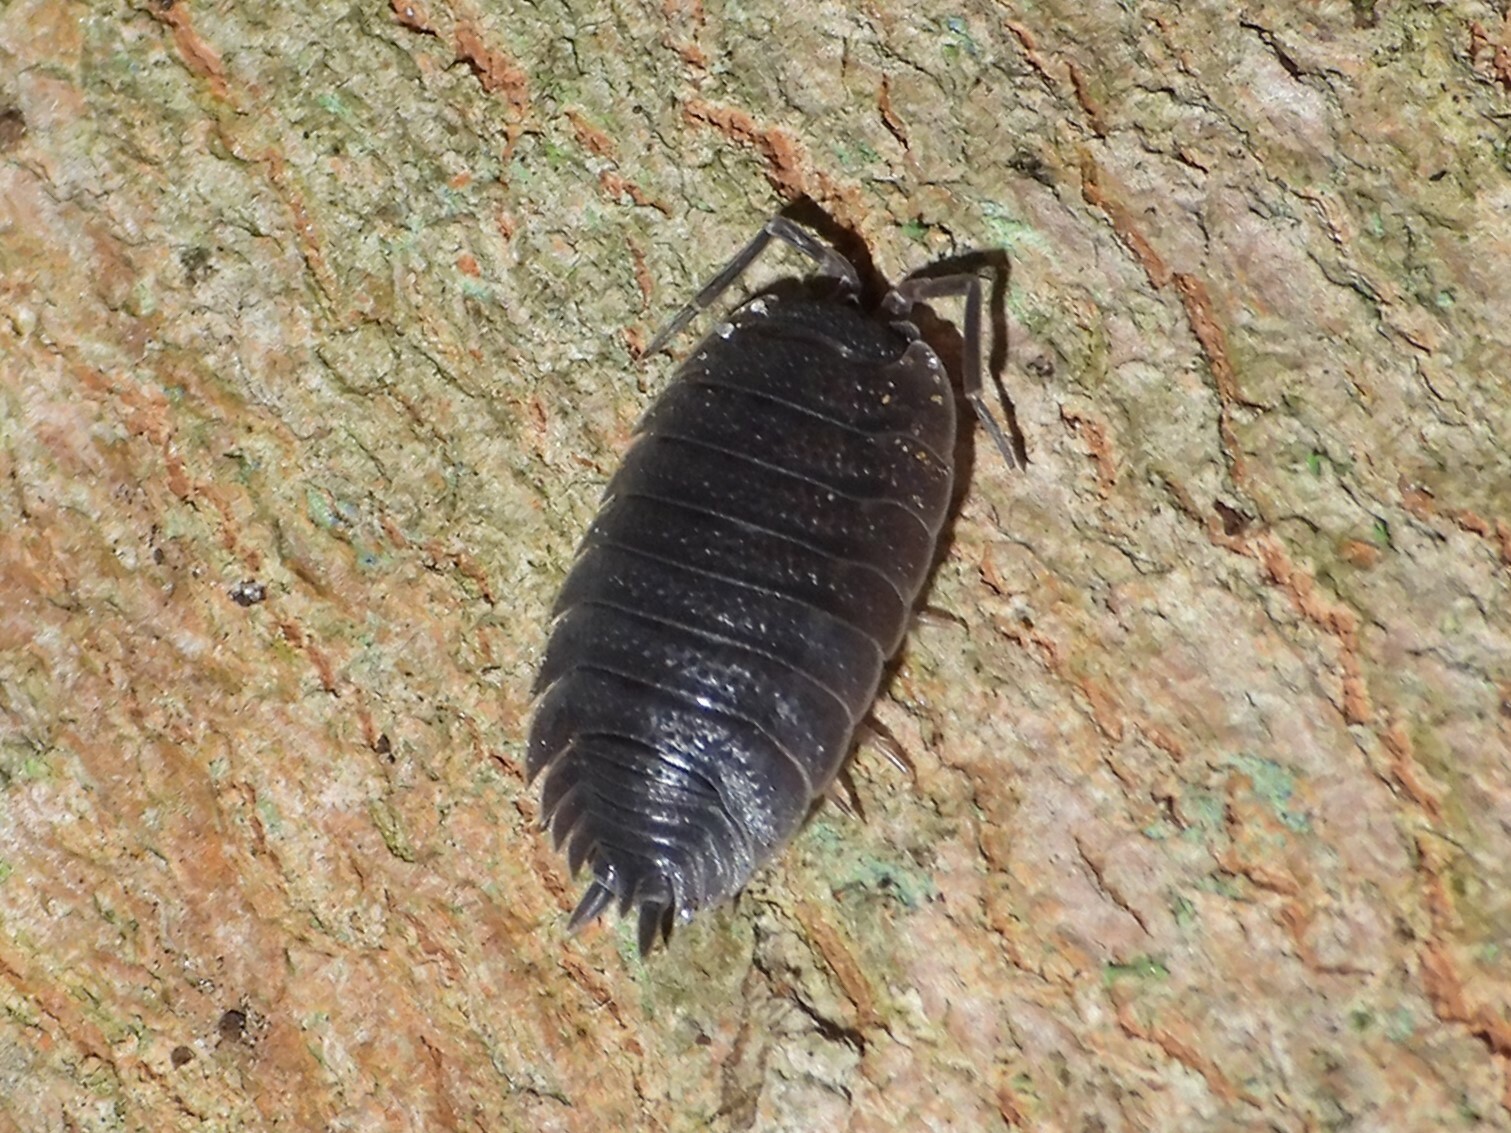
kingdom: Animalia
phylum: Arthropoda
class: Malacostraca
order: Isopoda
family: Porcellionidae
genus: Porcellio
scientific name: Porcellio scaber
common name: Common rough woodlouse
